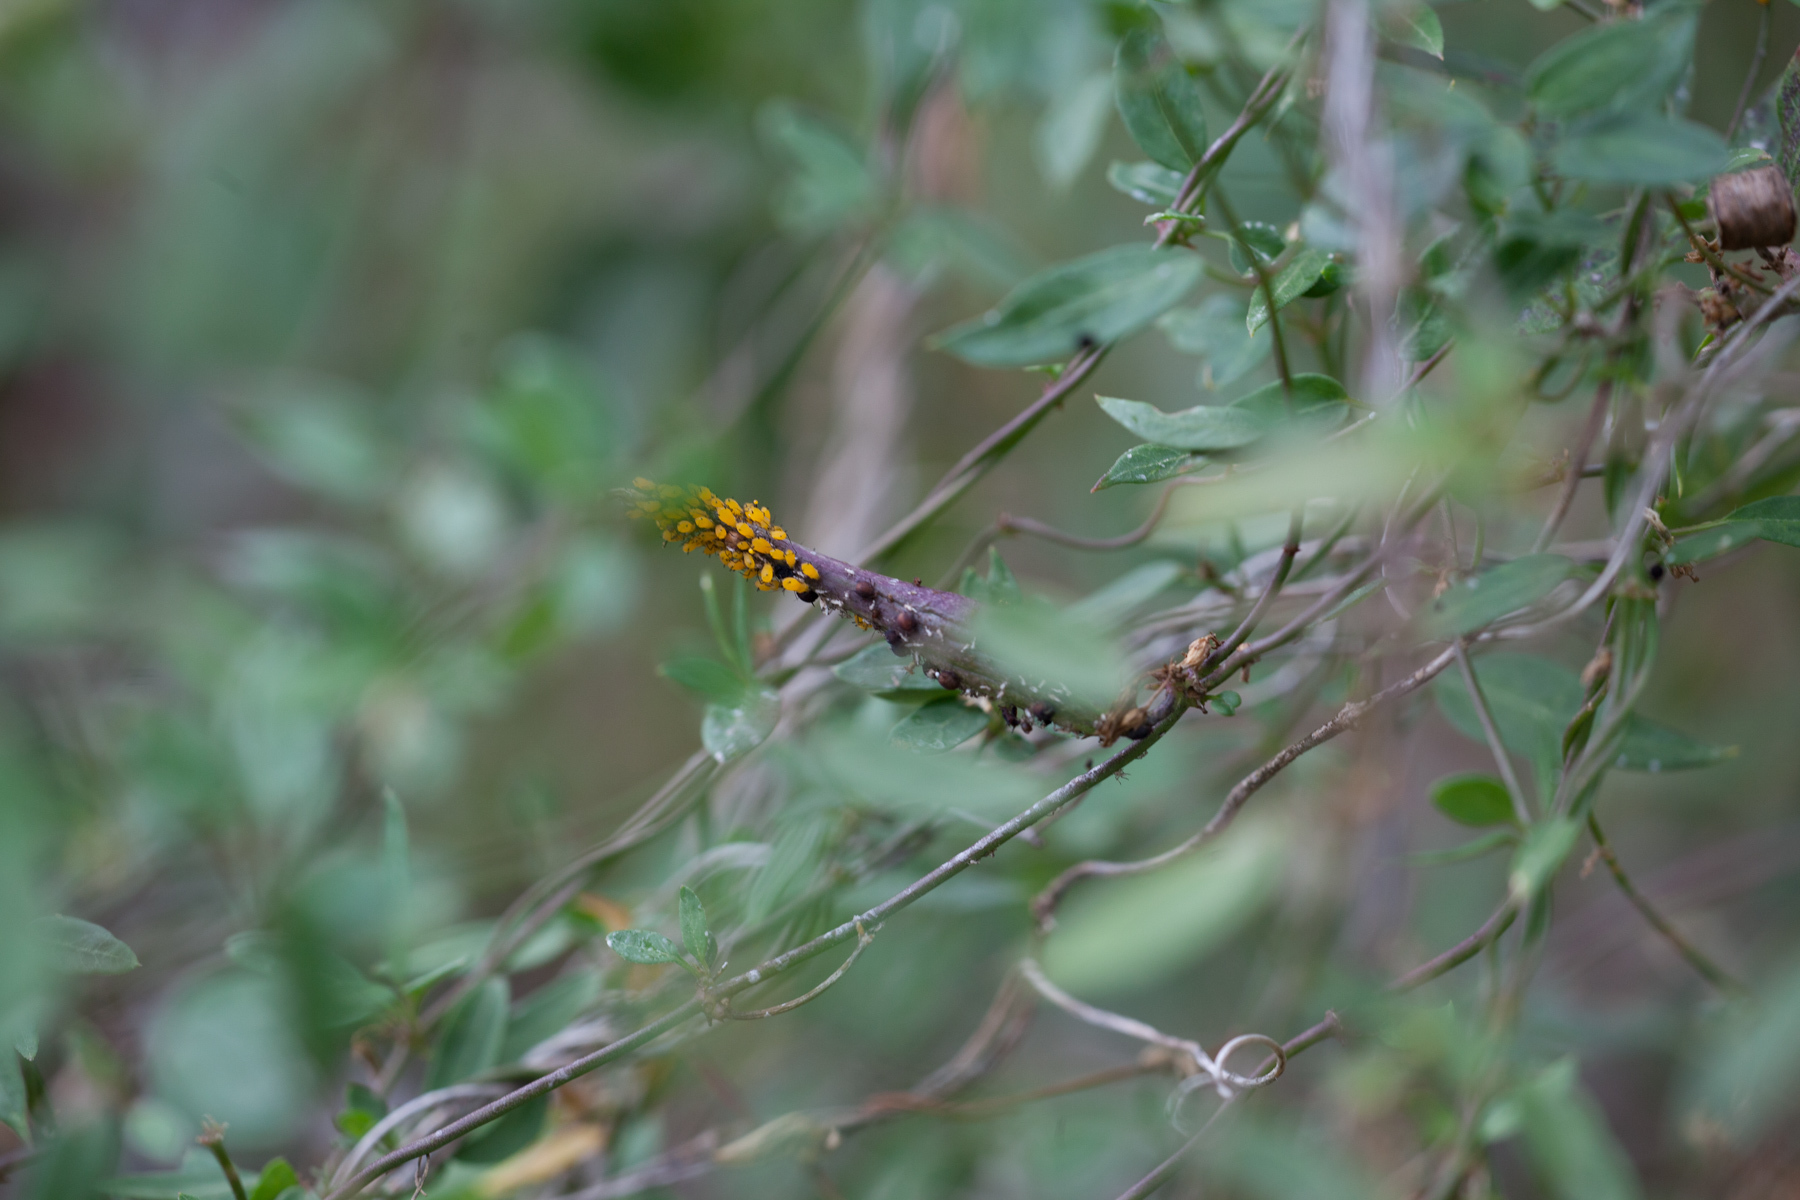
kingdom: Plantae
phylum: Tracheophyta
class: Magnoliopsida
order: Gentianales
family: Apocynaceae
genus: Metastelma
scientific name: Metastelma barbigerum
